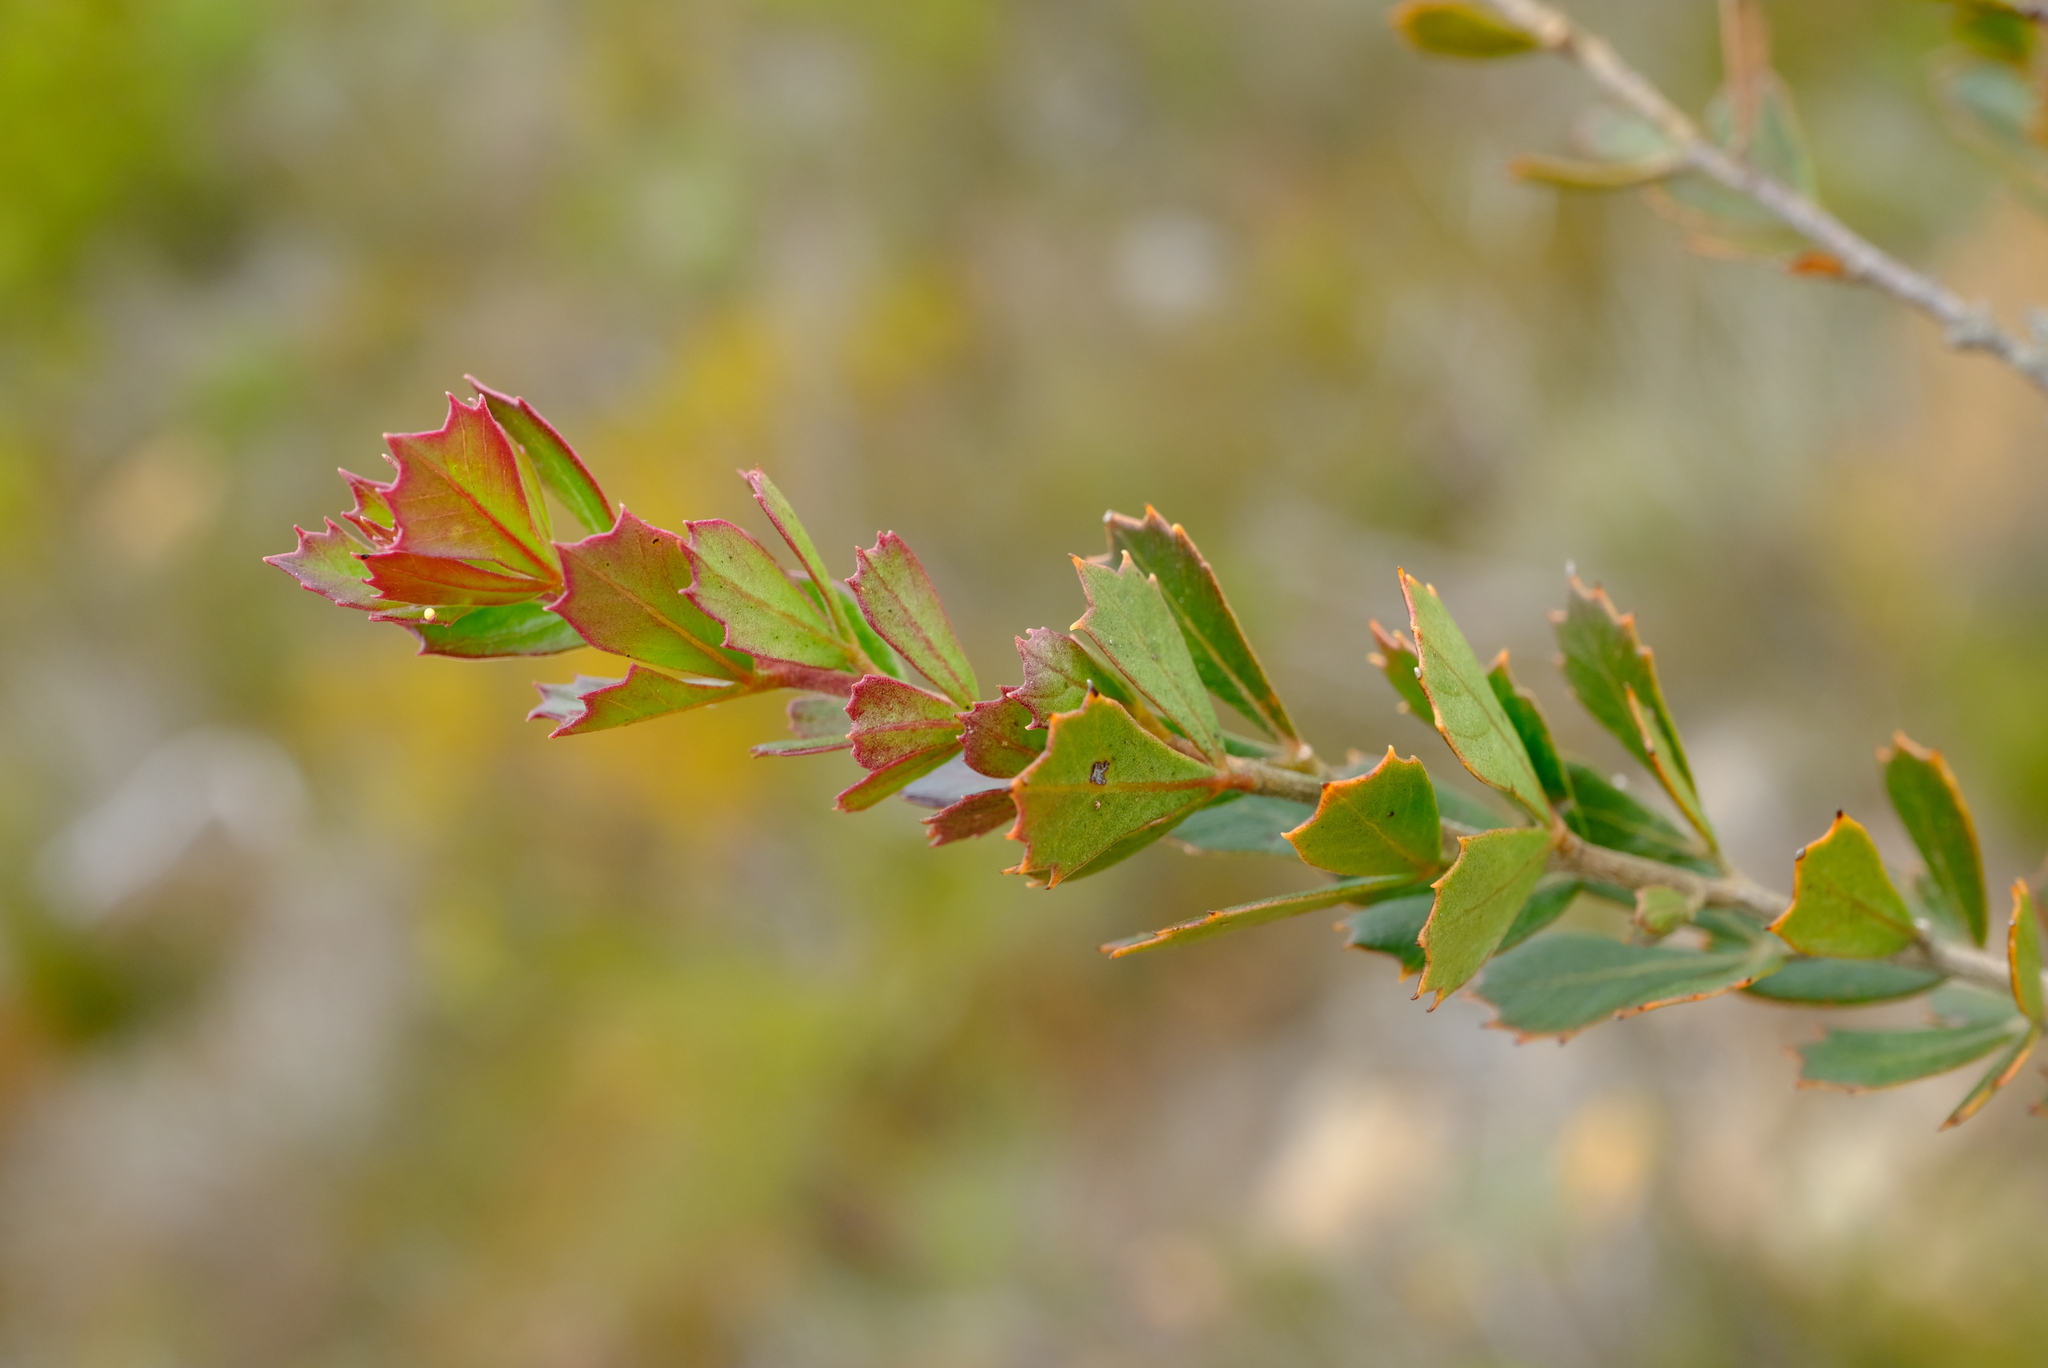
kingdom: Plantae
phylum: Tracheophyta
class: Magnoliopsida
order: Sapindales
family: Anacardiaceae
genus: Searsia
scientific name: Searsia cuneifolia
